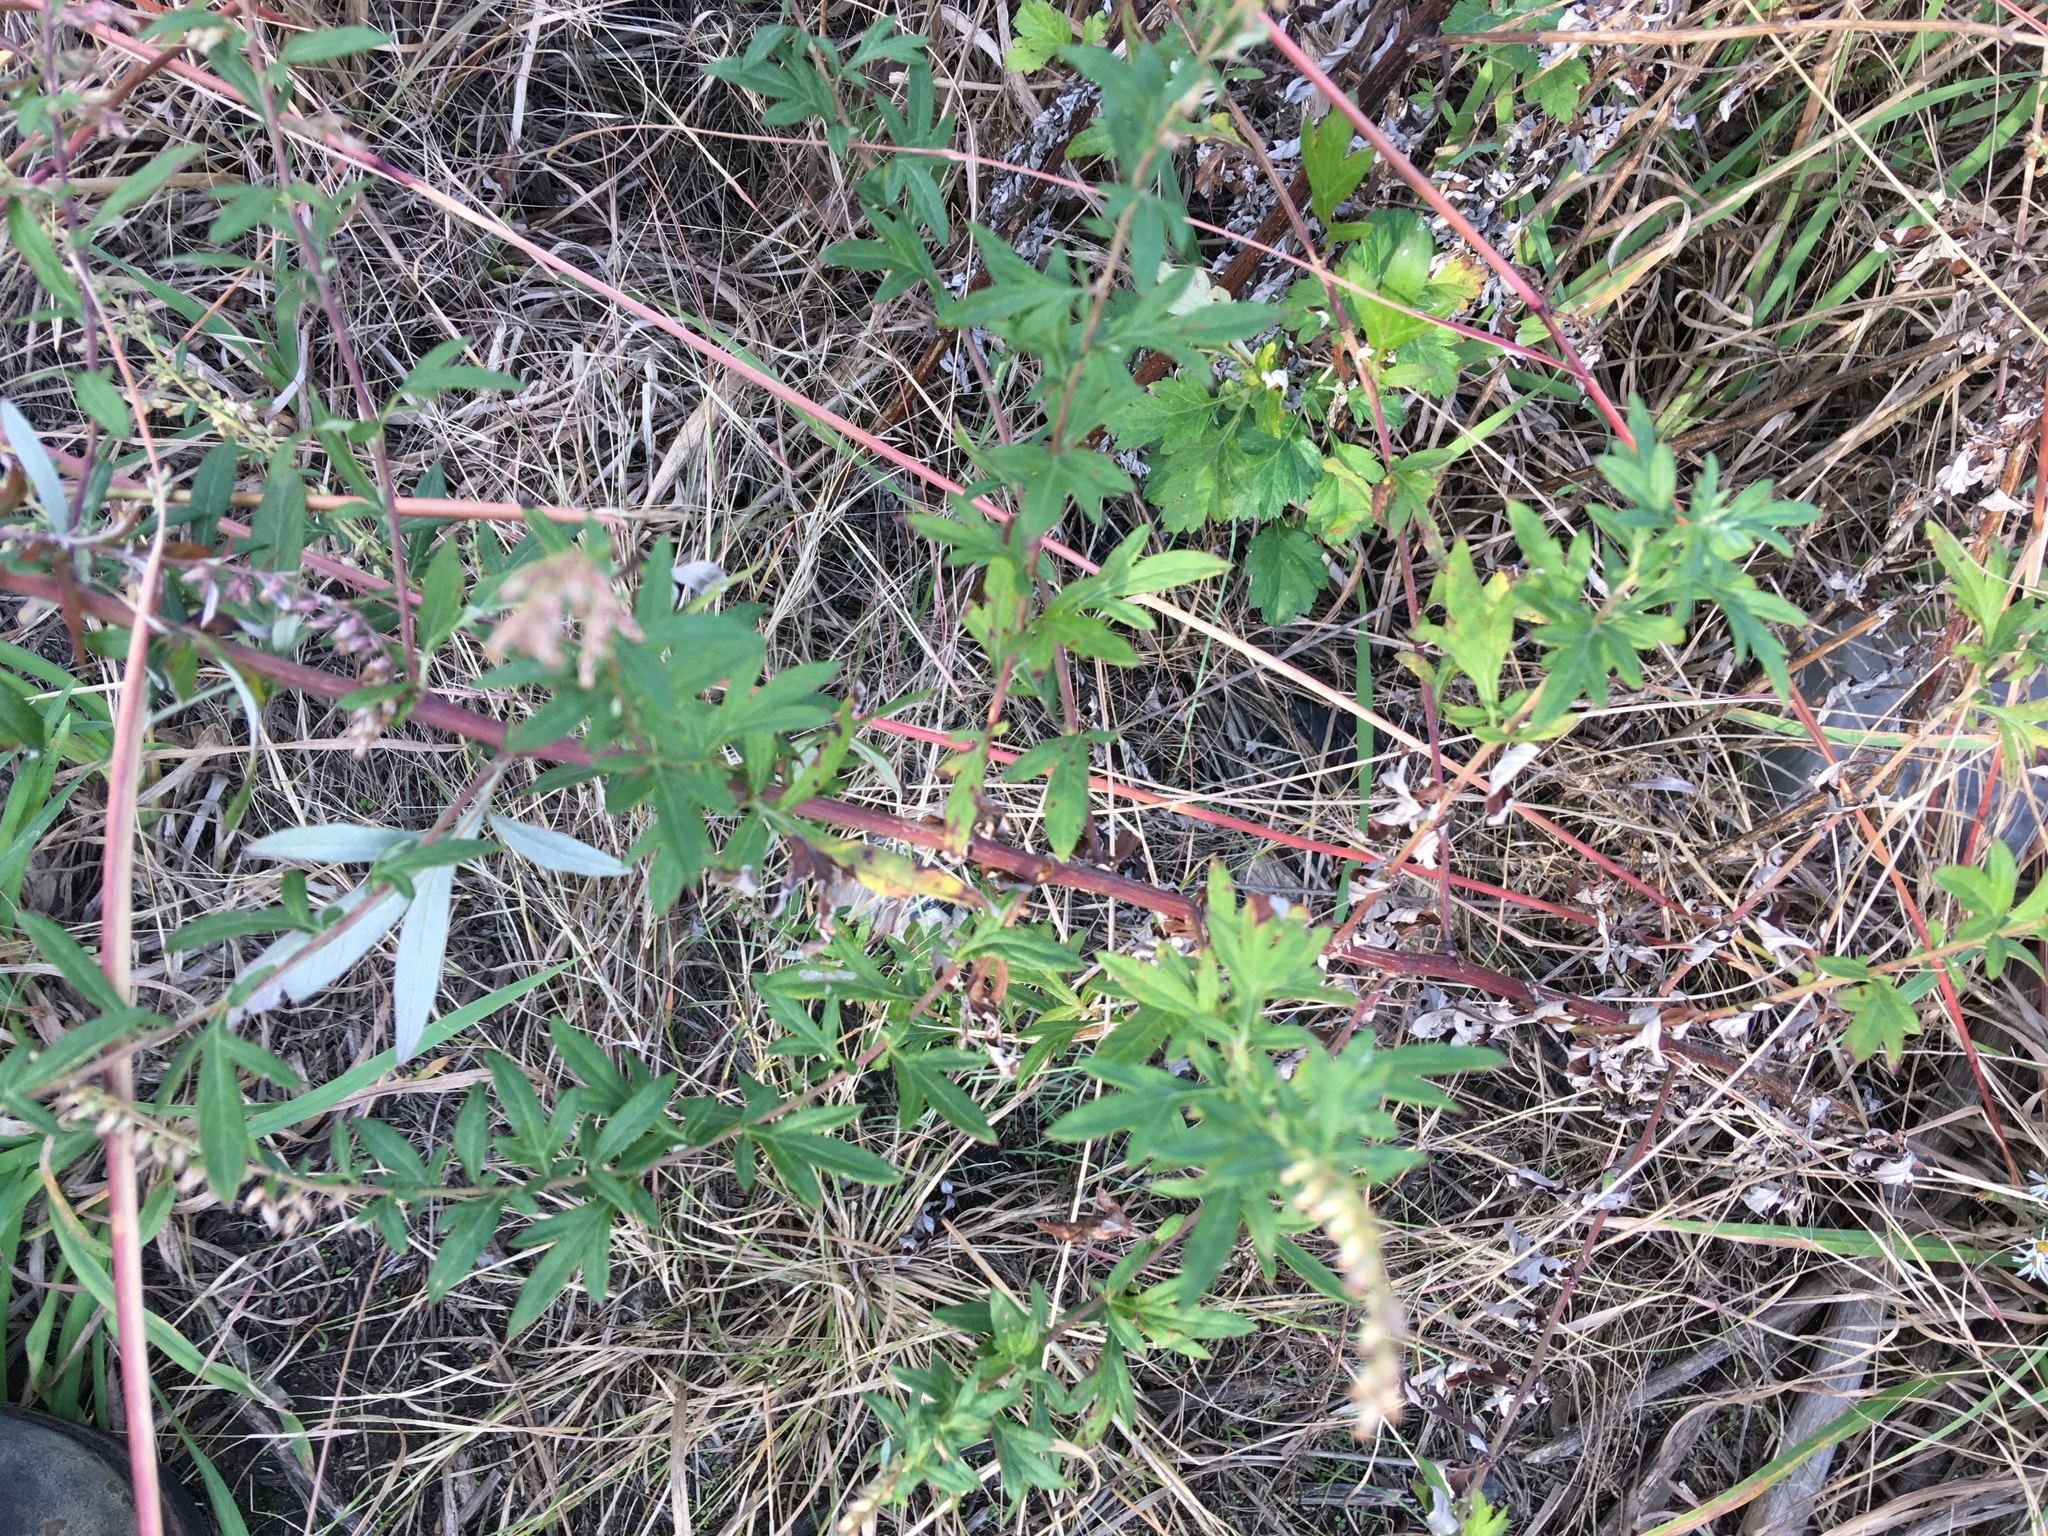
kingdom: Plantae
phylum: Tracheophyta
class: Magnoliopsida
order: Asterales
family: Asteraceae
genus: Artemisia
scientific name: Artemisia vulgaris
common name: Mugwort
